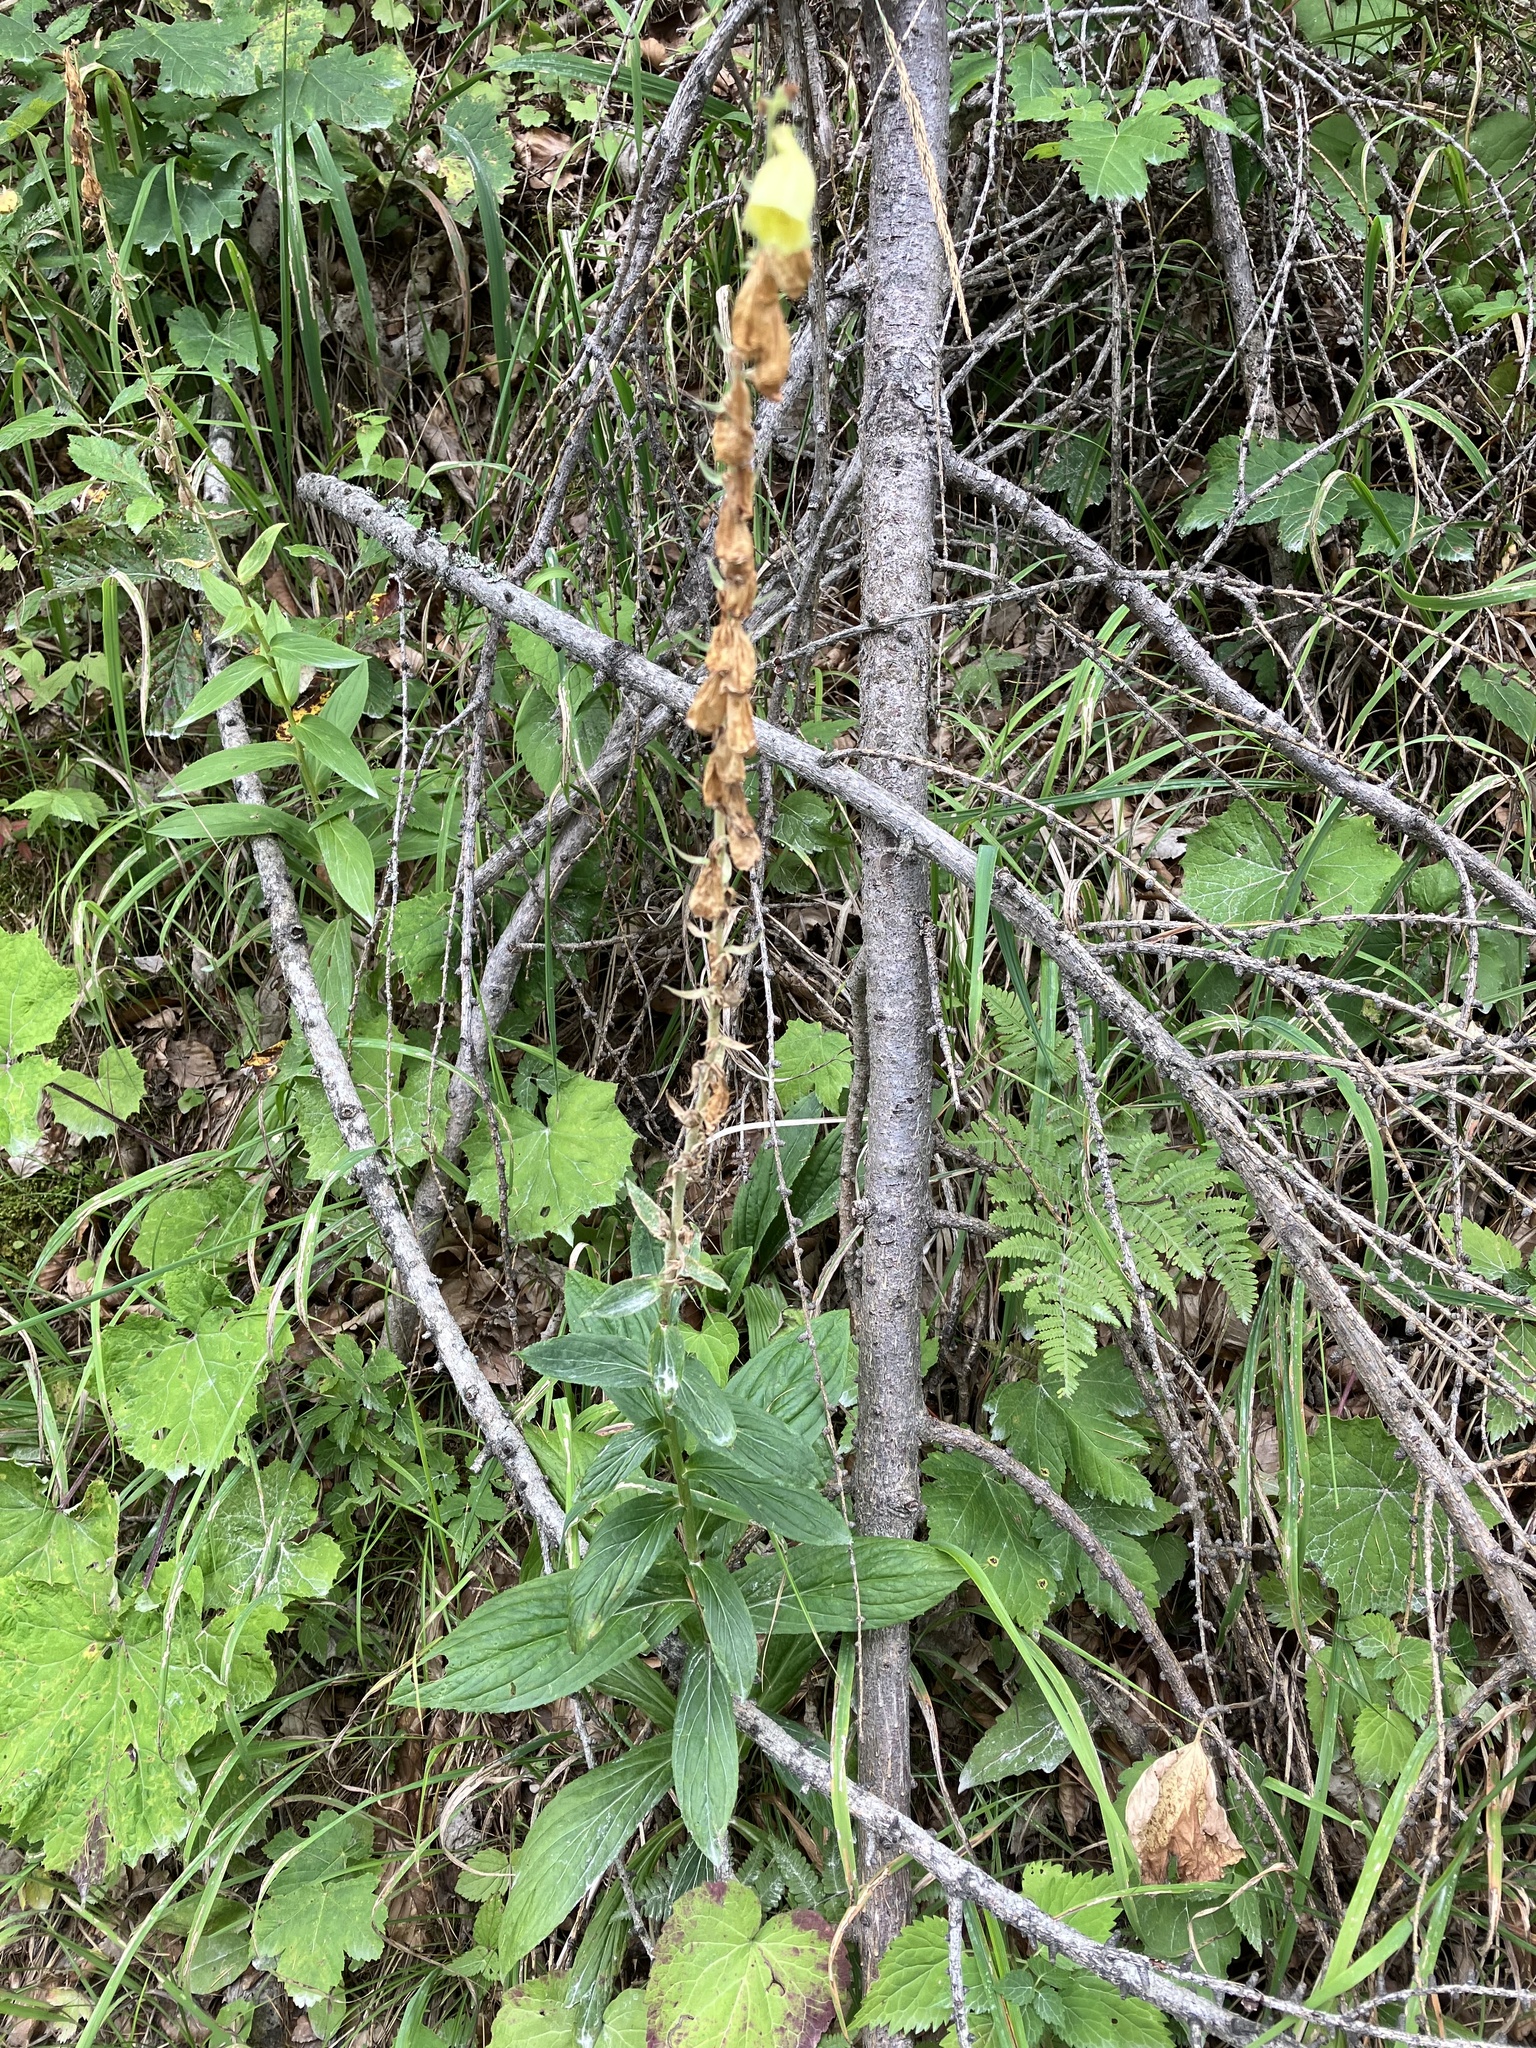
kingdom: Plantae
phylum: Tracheophyta
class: Magnoliopsida
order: Lamiales
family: Plantaginaceae
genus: Digitalis
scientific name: Digitalis grandiflora
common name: Yellow foxglove
